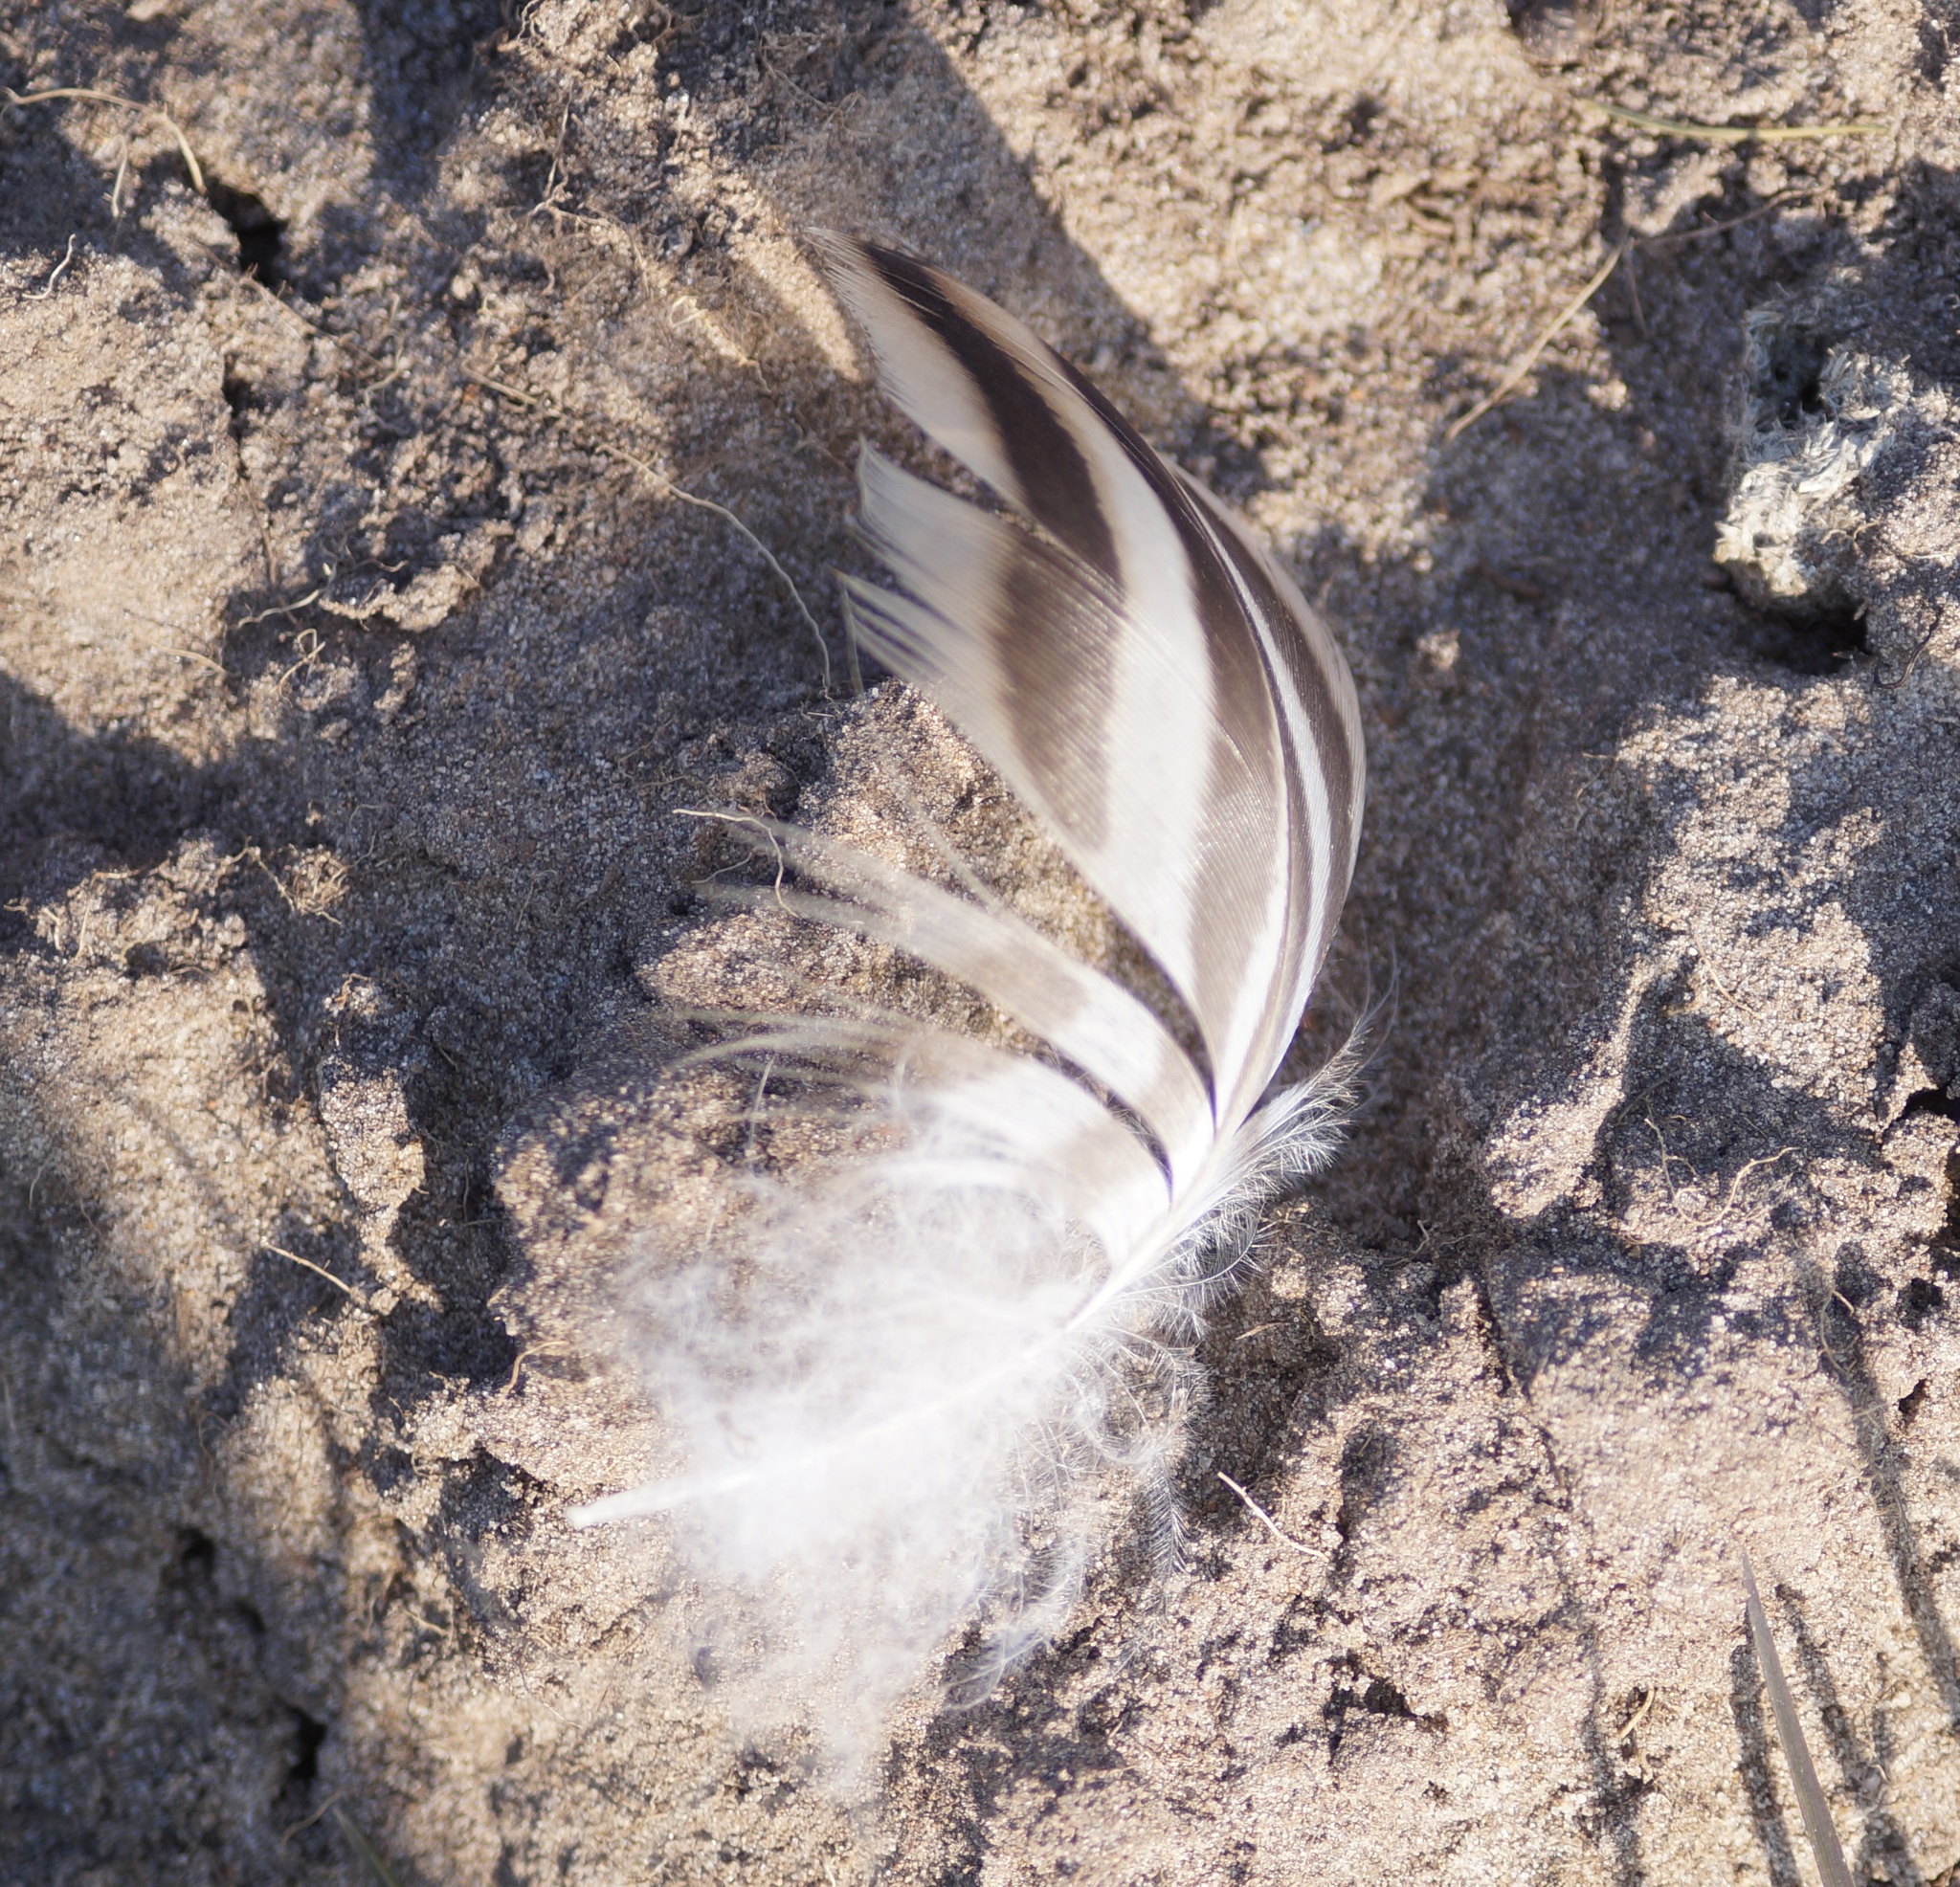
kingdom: Animalia
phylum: Chordata
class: Aves
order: Anseriformes
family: Anatidae
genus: Anas
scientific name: Anas platyrhynchos
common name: Mallard
